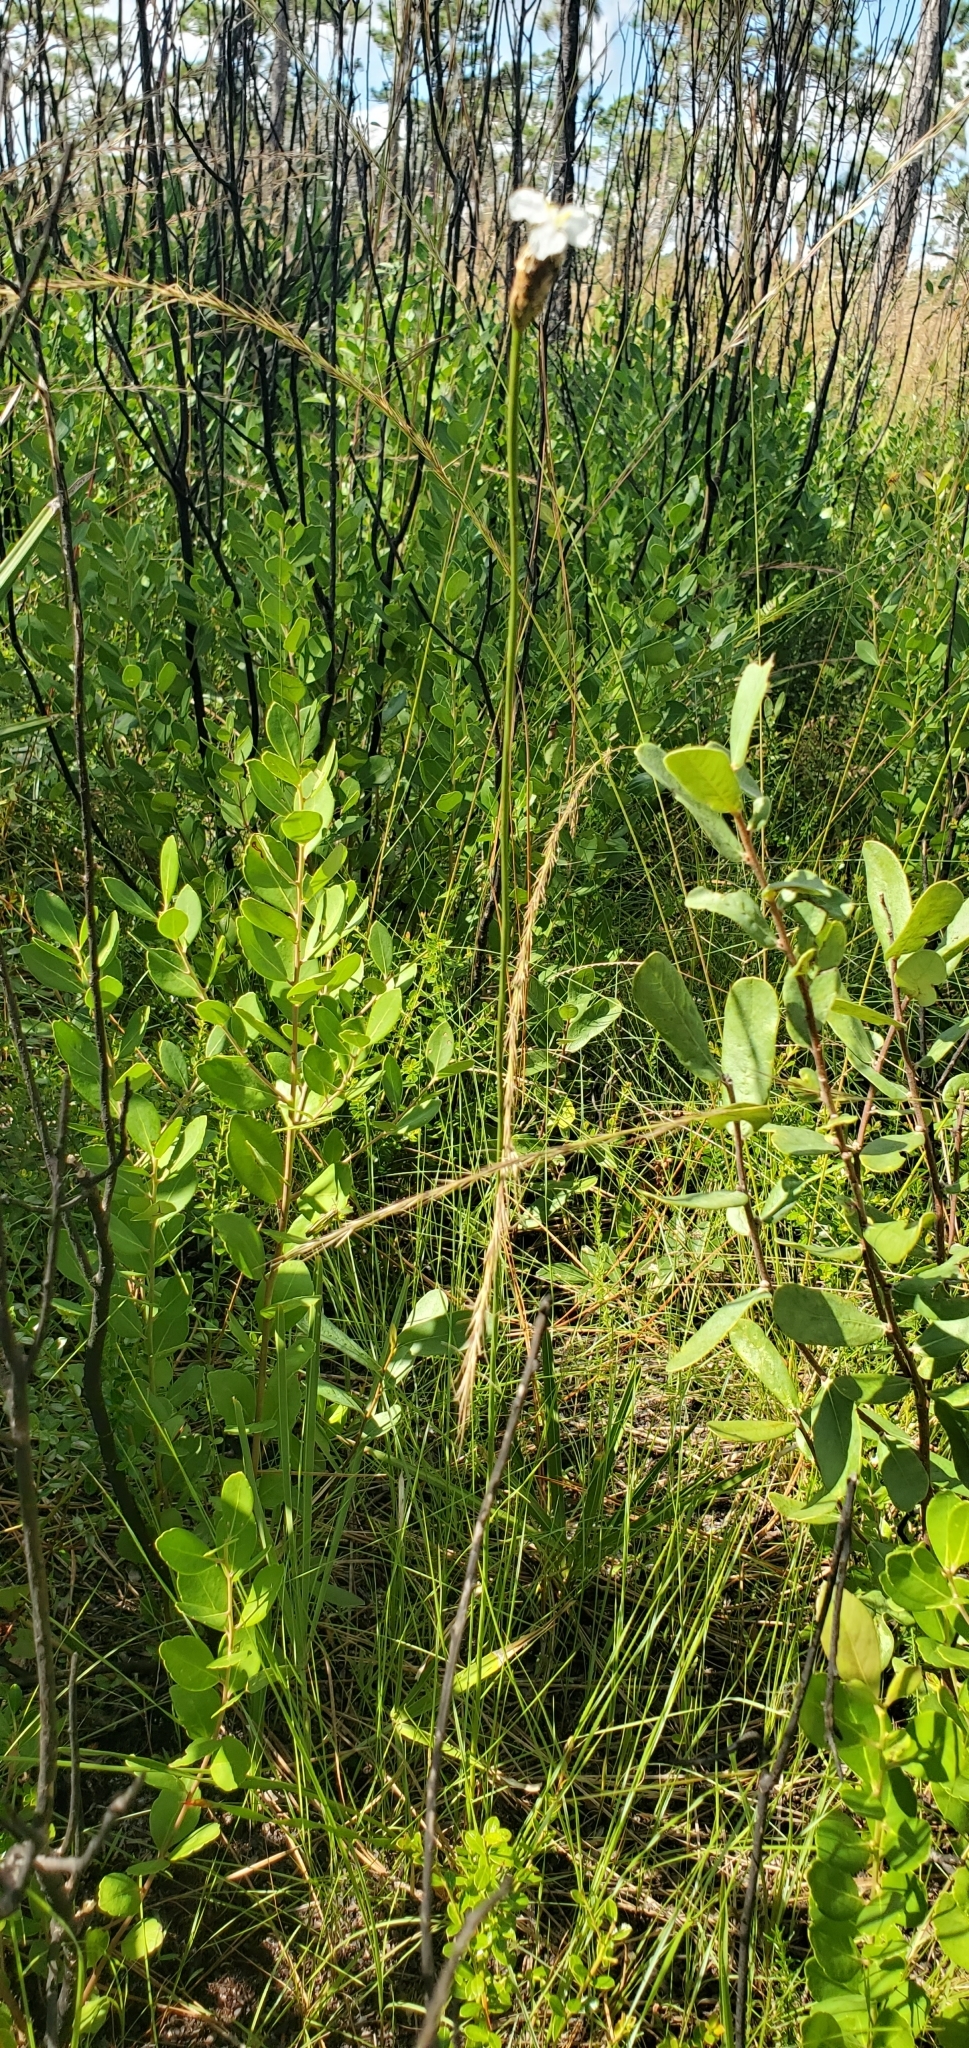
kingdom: Plantae
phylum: Tracheophyta
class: Liliopsida
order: Poales
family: Xyridaceae
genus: Xyris
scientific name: Xyris caroliniana
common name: Carolina yellow-eyed-grass
